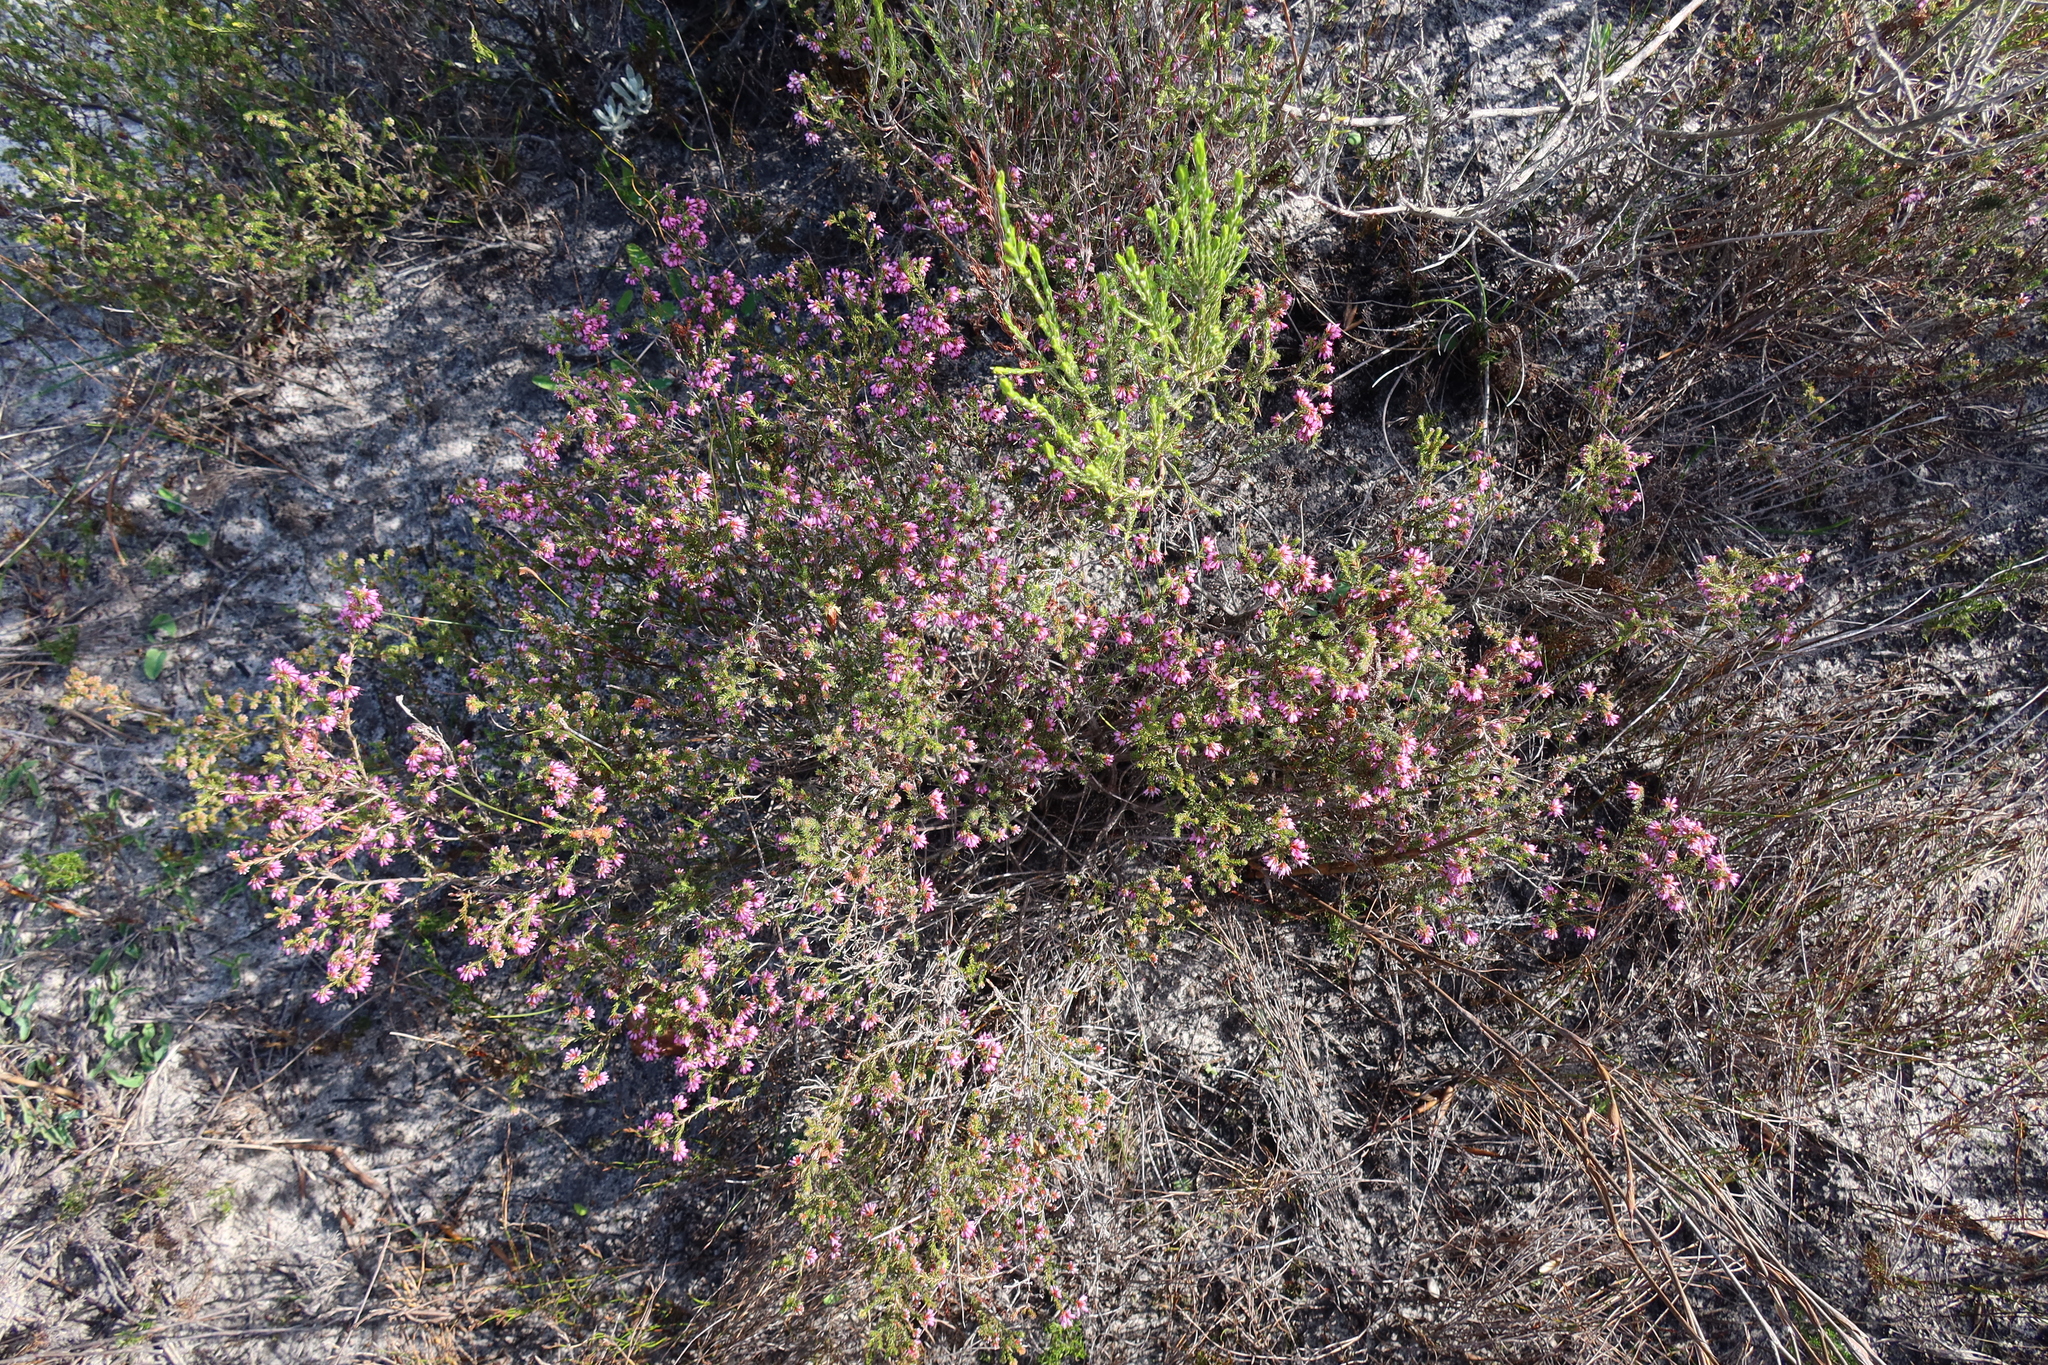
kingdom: Plantae
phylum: Tracheophyta
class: Magnoliopsida
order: Ericales
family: Ericaceae
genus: Erica
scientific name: Erica glabella
